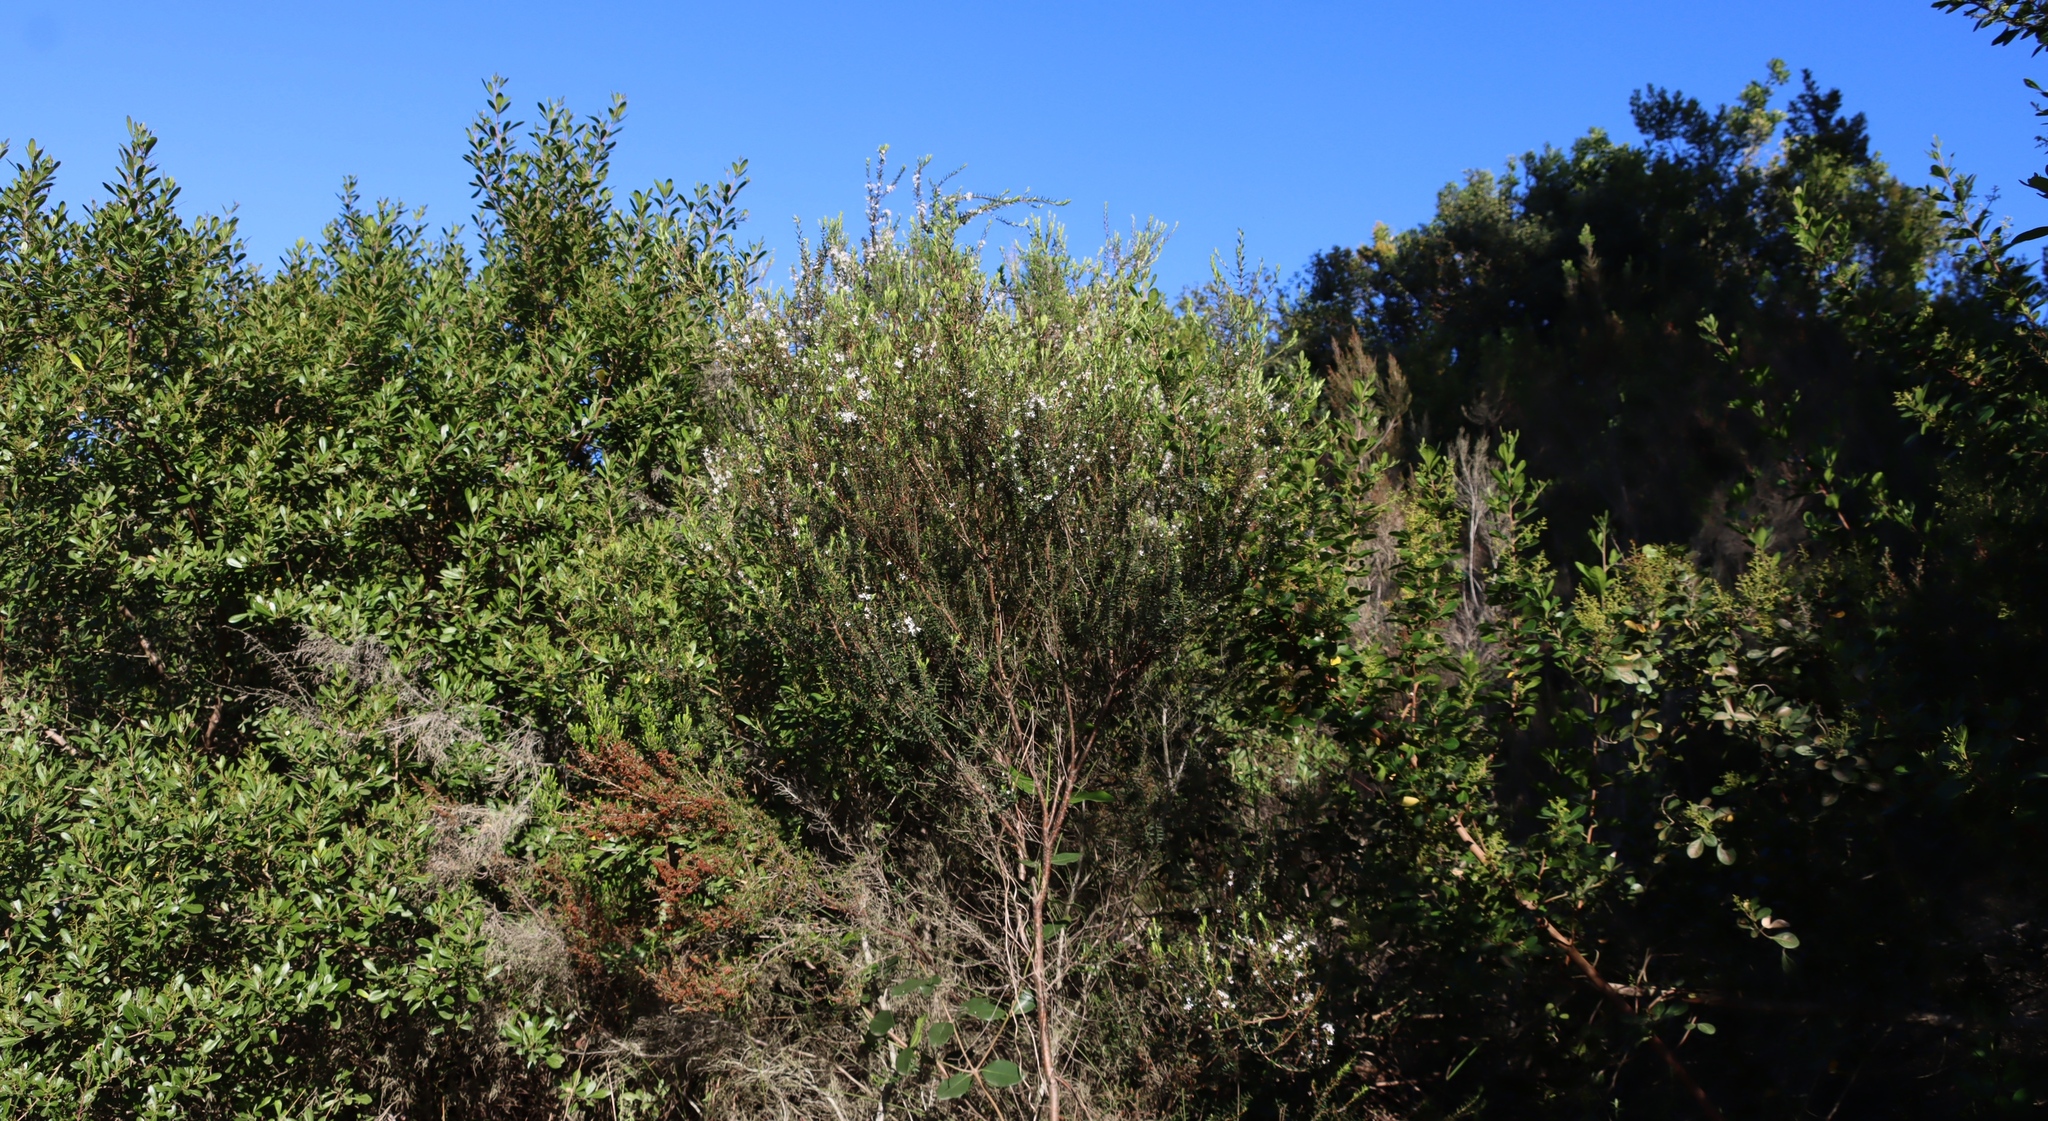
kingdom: Plantae
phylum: Tracheophyta
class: Magnoliopsida
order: Sapindales
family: Rutaceae
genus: Agathosma
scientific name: Agathosma ovata
